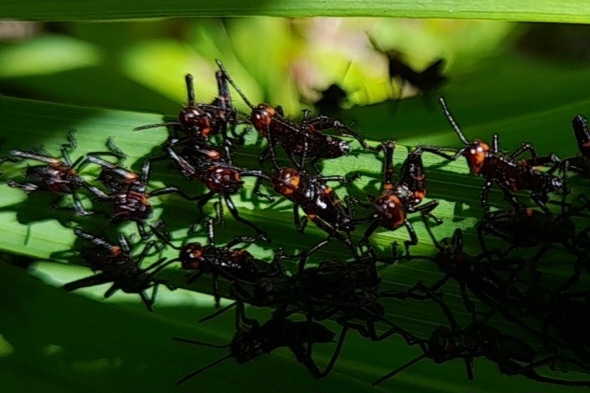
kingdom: Animalia
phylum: Arthropoda
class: Insecta
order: Orthoptera
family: Romaleidae
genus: Chromacris
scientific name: Chromacris speciosa
